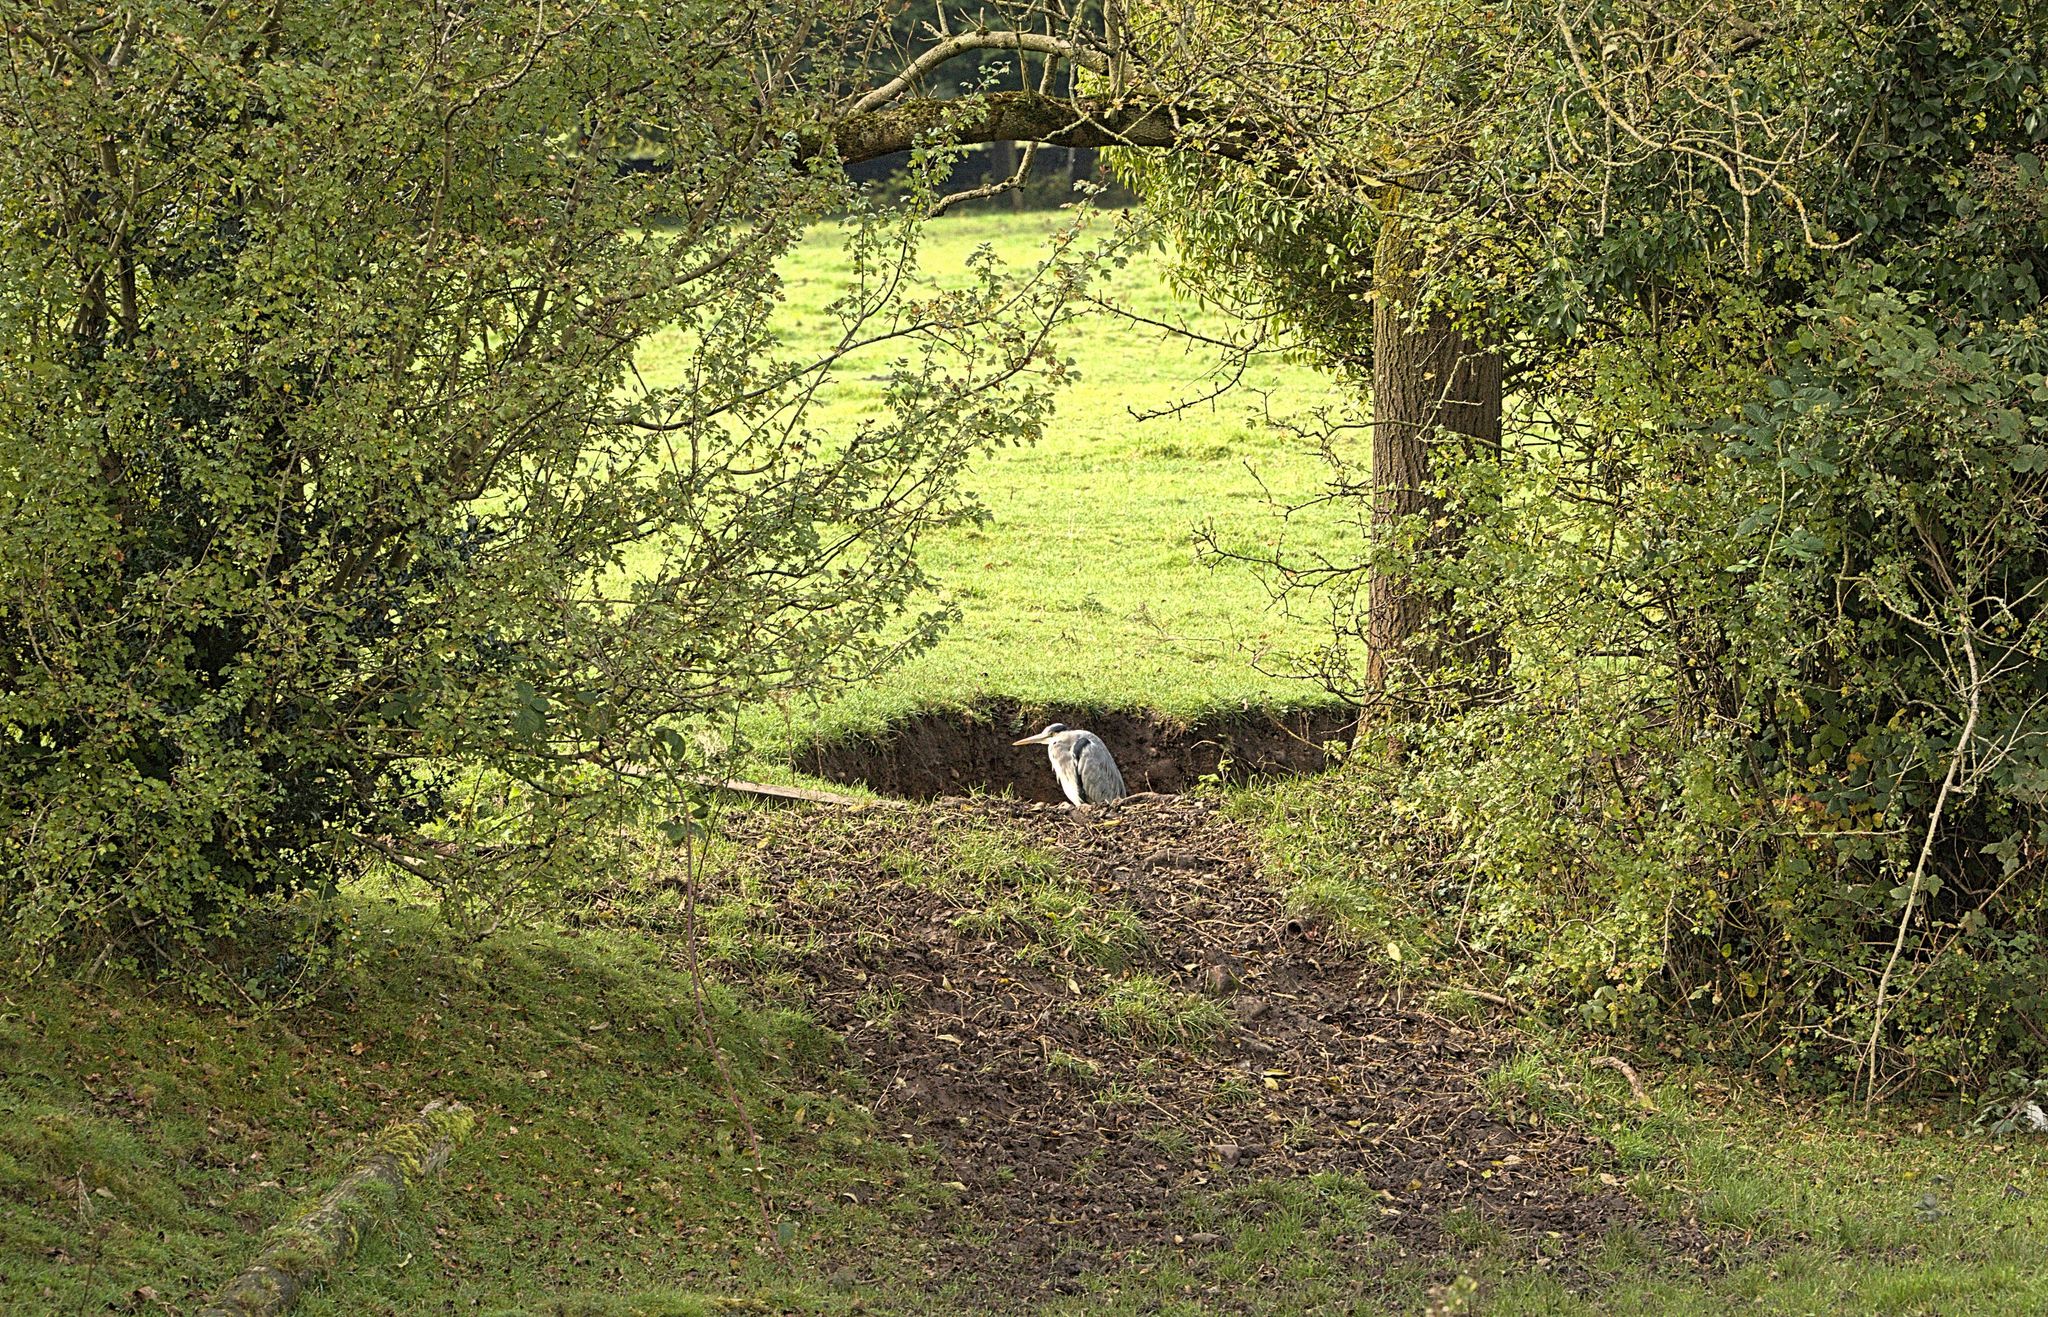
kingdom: Animalia
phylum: Chordata
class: Aves
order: Pelecaniformes
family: Ardeidae
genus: Ardea
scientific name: Ardea cinerea
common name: Grey heron
